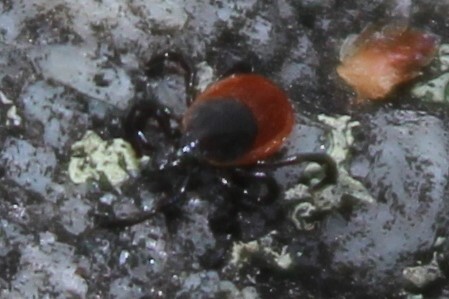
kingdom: Animalia
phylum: Arthropoda
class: Arachnida
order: Ixodida
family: Ixodidae
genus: Ixodes
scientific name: Ixodes scapularis
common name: Black legged tick
